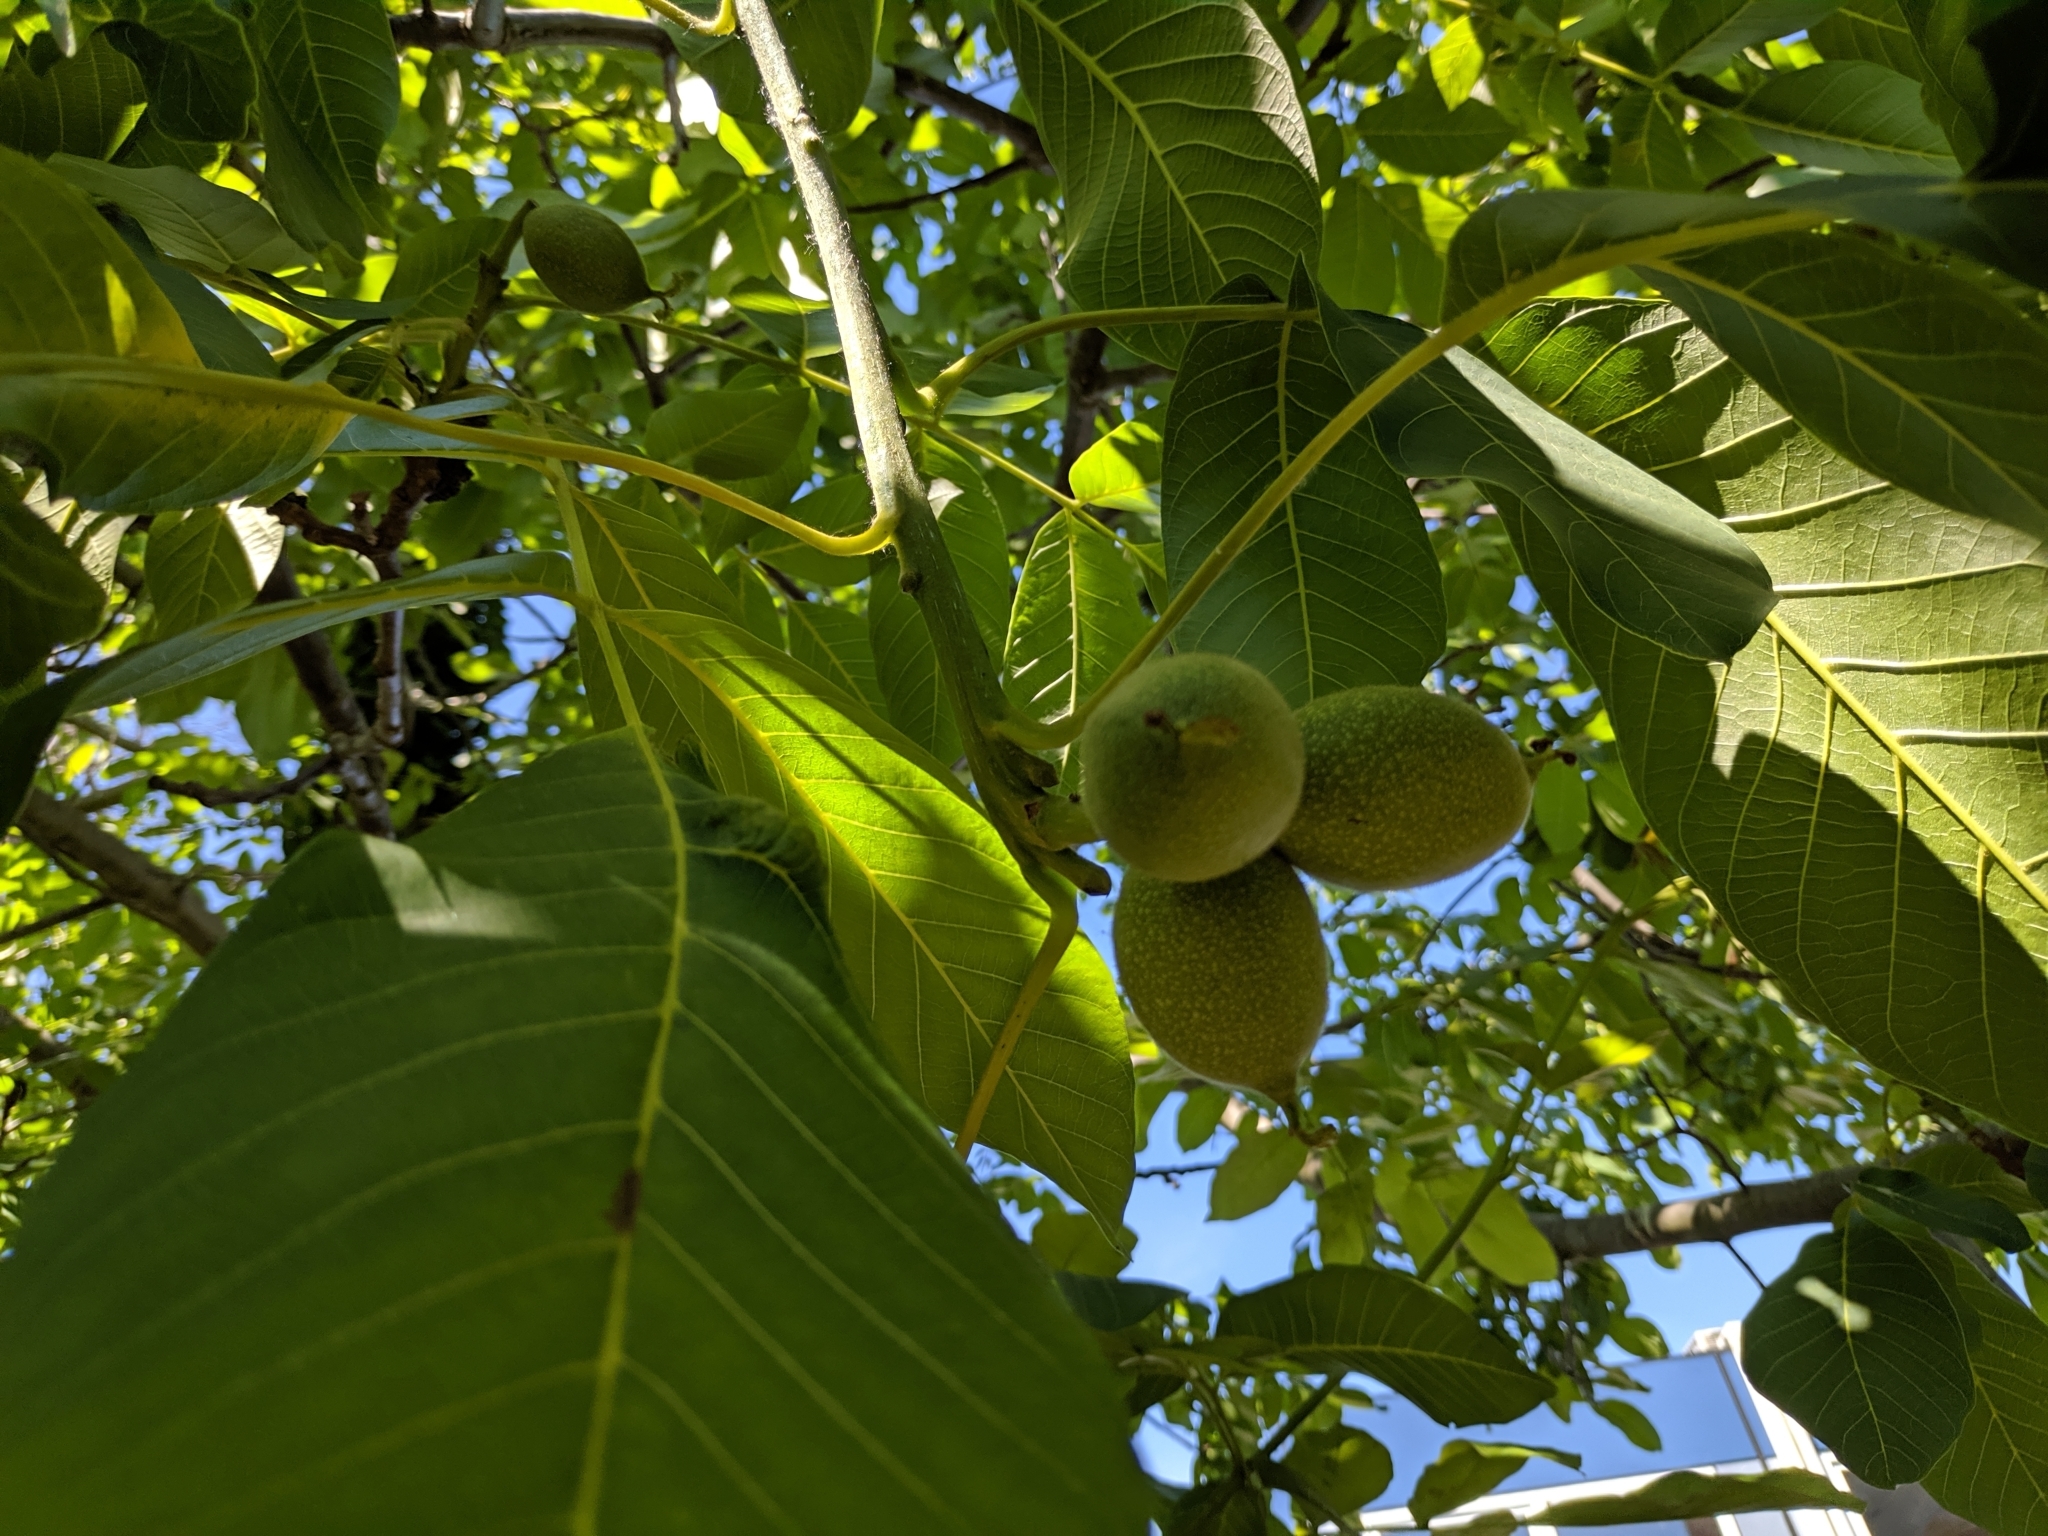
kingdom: Plantae
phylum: Tracheophyta
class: Magnoliopsida
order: Fagales
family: Juglandaceae
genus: Juglans
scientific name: Juglans regia
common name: Walnut
